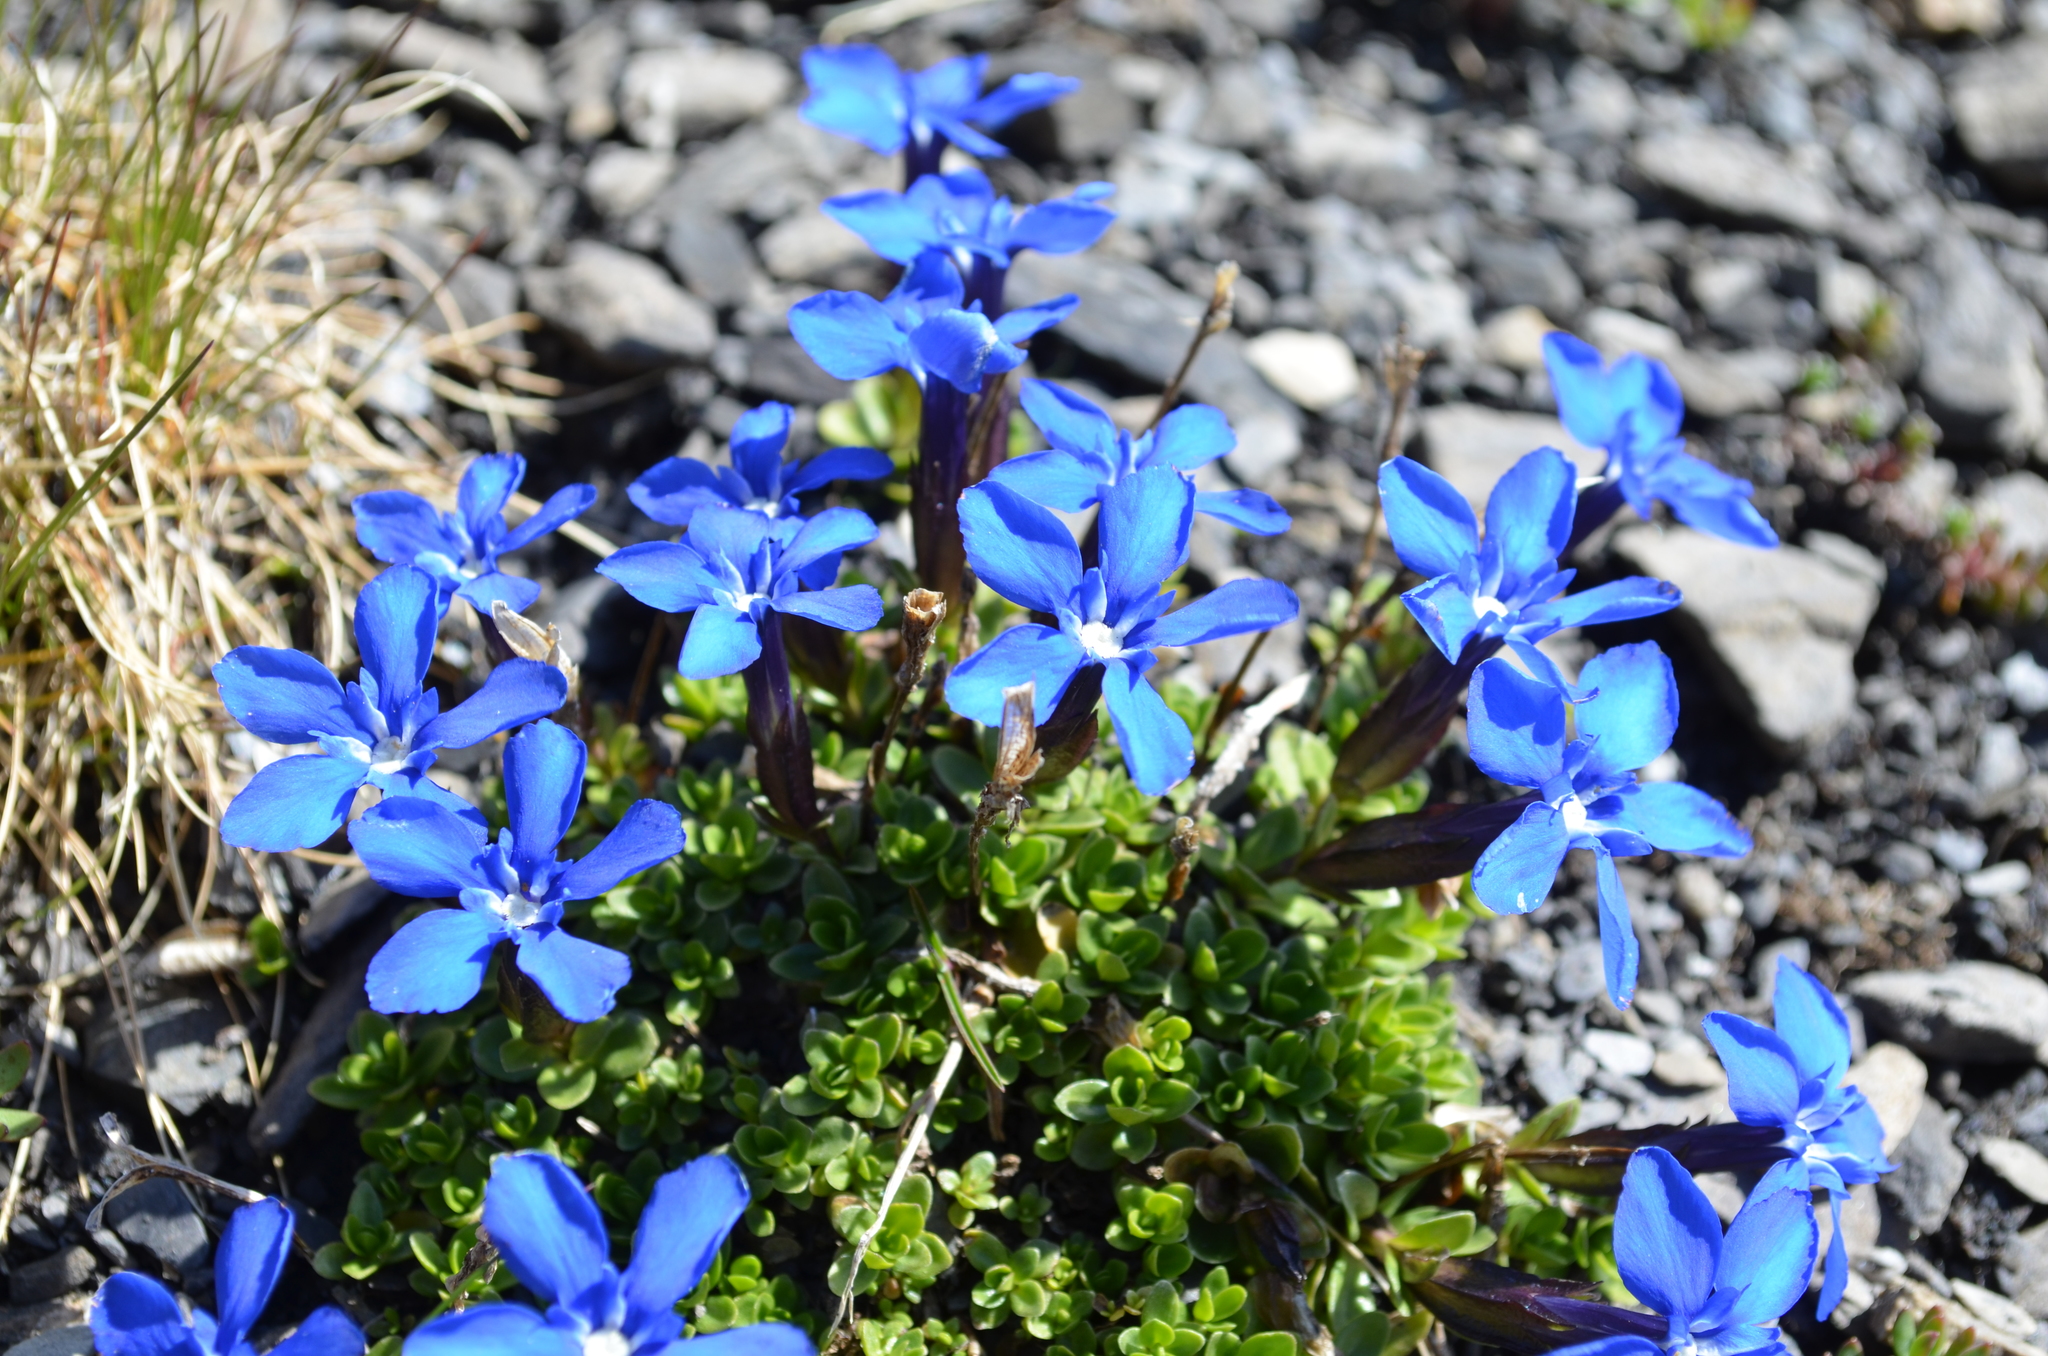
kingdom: Plantae
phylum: Tracheophyta
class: Magnoliopsida
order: Gentianales
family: Gentianaceae
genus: Gentiana
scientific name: Gentiana orbicularis
